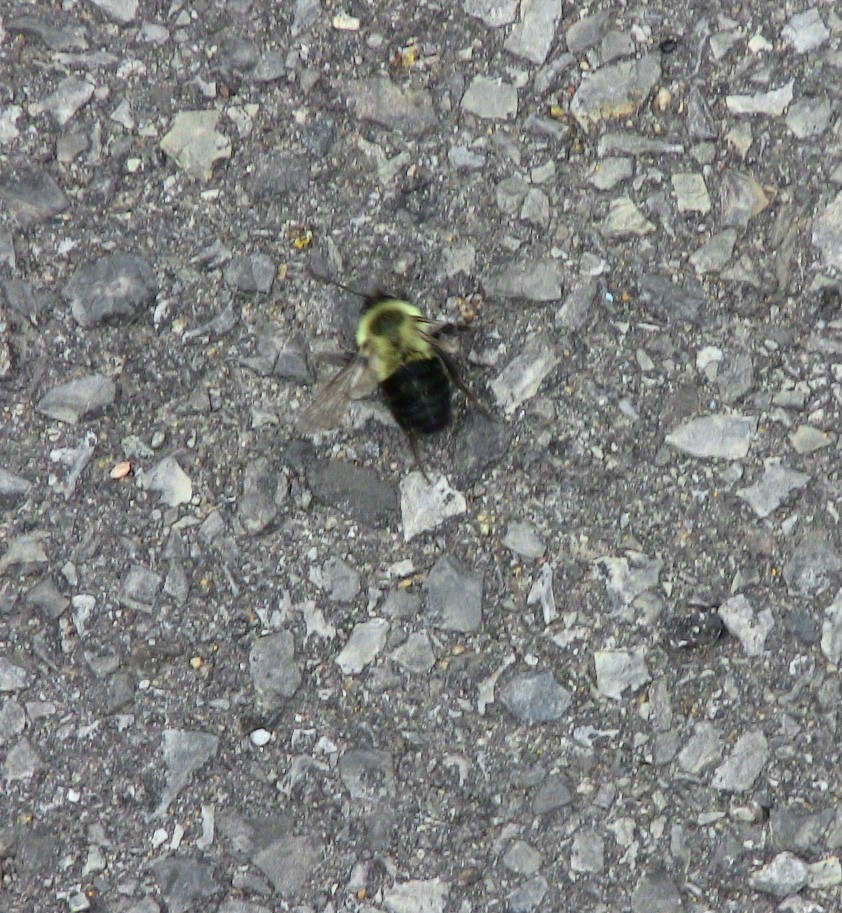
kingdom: Animalia
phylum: Arthropoda
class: Insecta
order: Hymenoptera
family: Apidae
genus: Bombus
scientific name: Bombus impatiens
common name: Common eastern bumble bee
